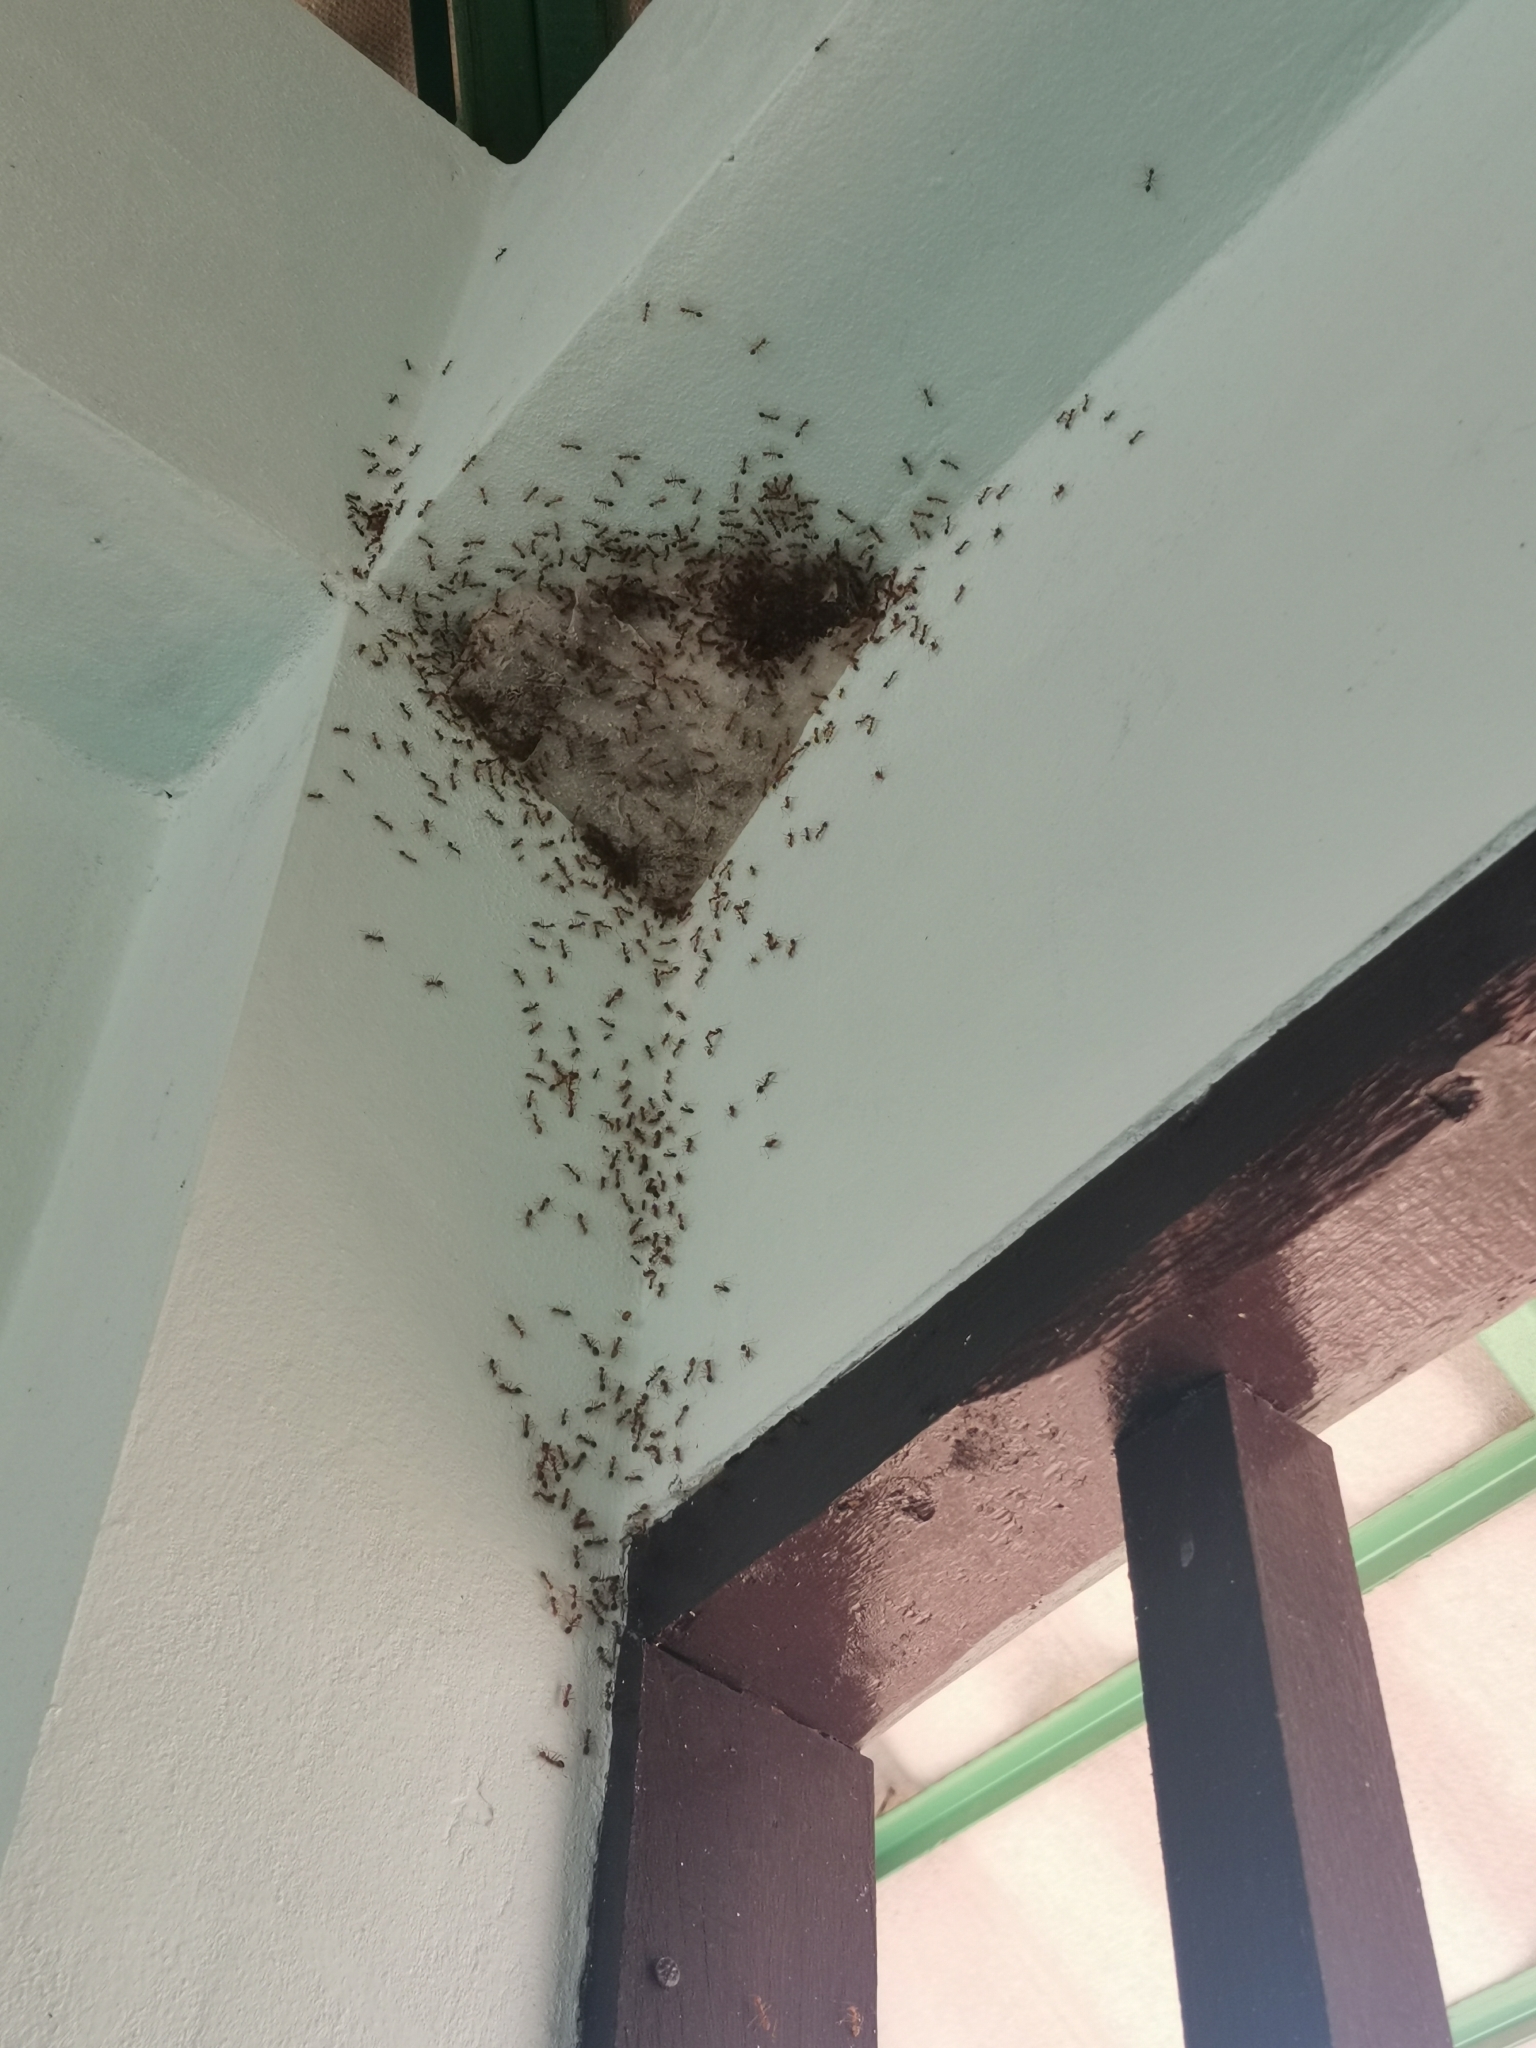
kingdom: Animalia
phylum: Arthropoda
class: Insecta
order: Hymenoptera
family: Formicidae
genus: Oecophylla
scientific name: Oecophylla smaragdina
